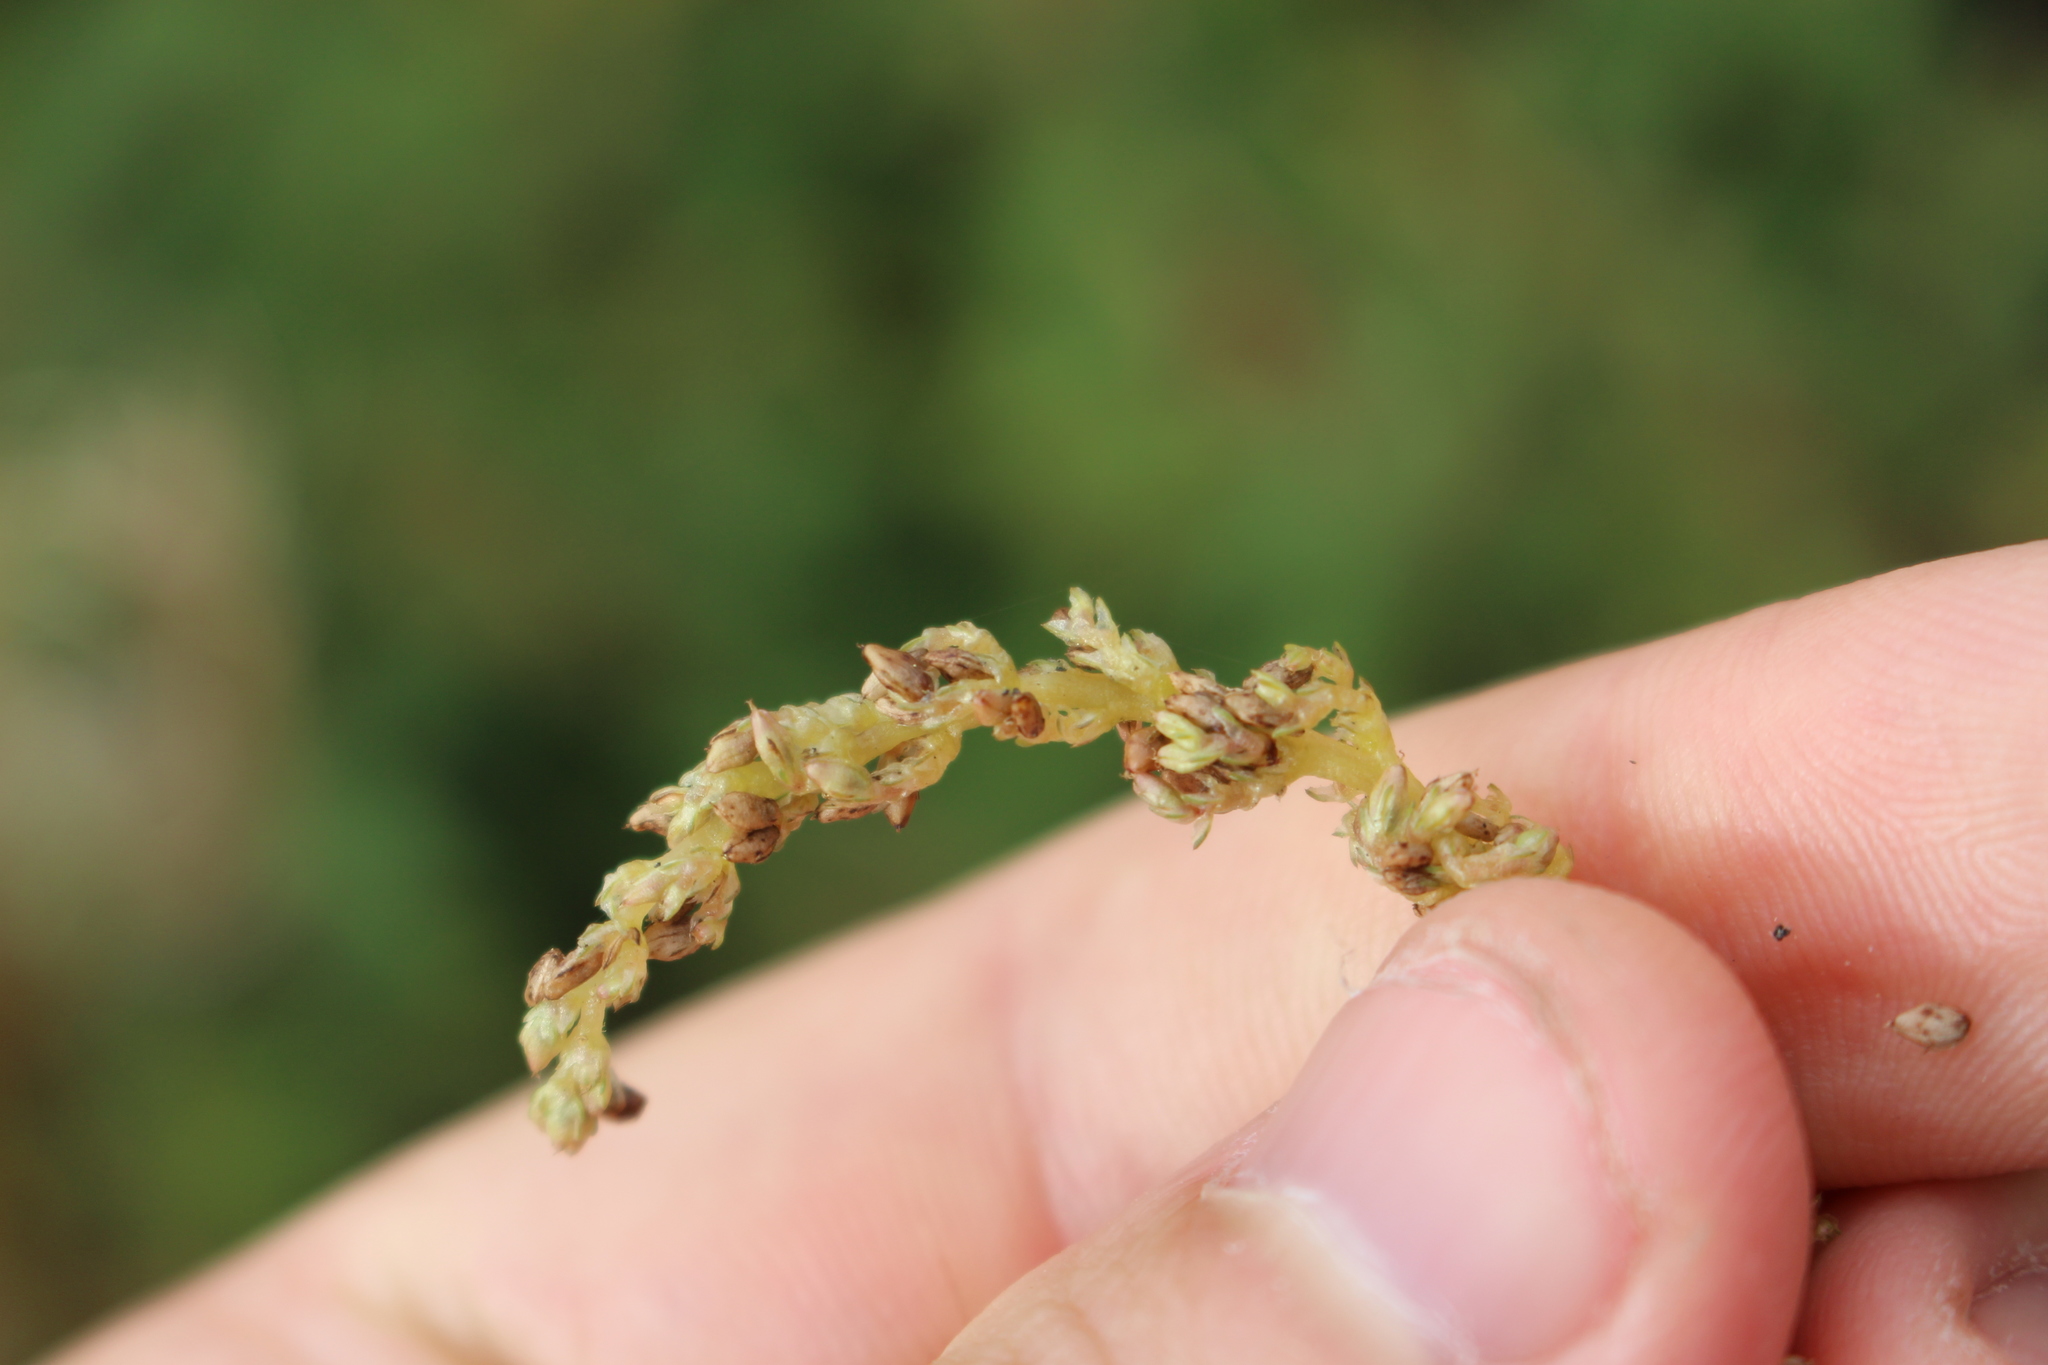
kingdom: Plantae
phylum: Tracheophyta
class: Magnoliopsida
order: Caryophyllales
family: Amaranthaceae
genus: Amaranthus
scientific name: Amaranthus deflexus
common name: Perennial pigweed
